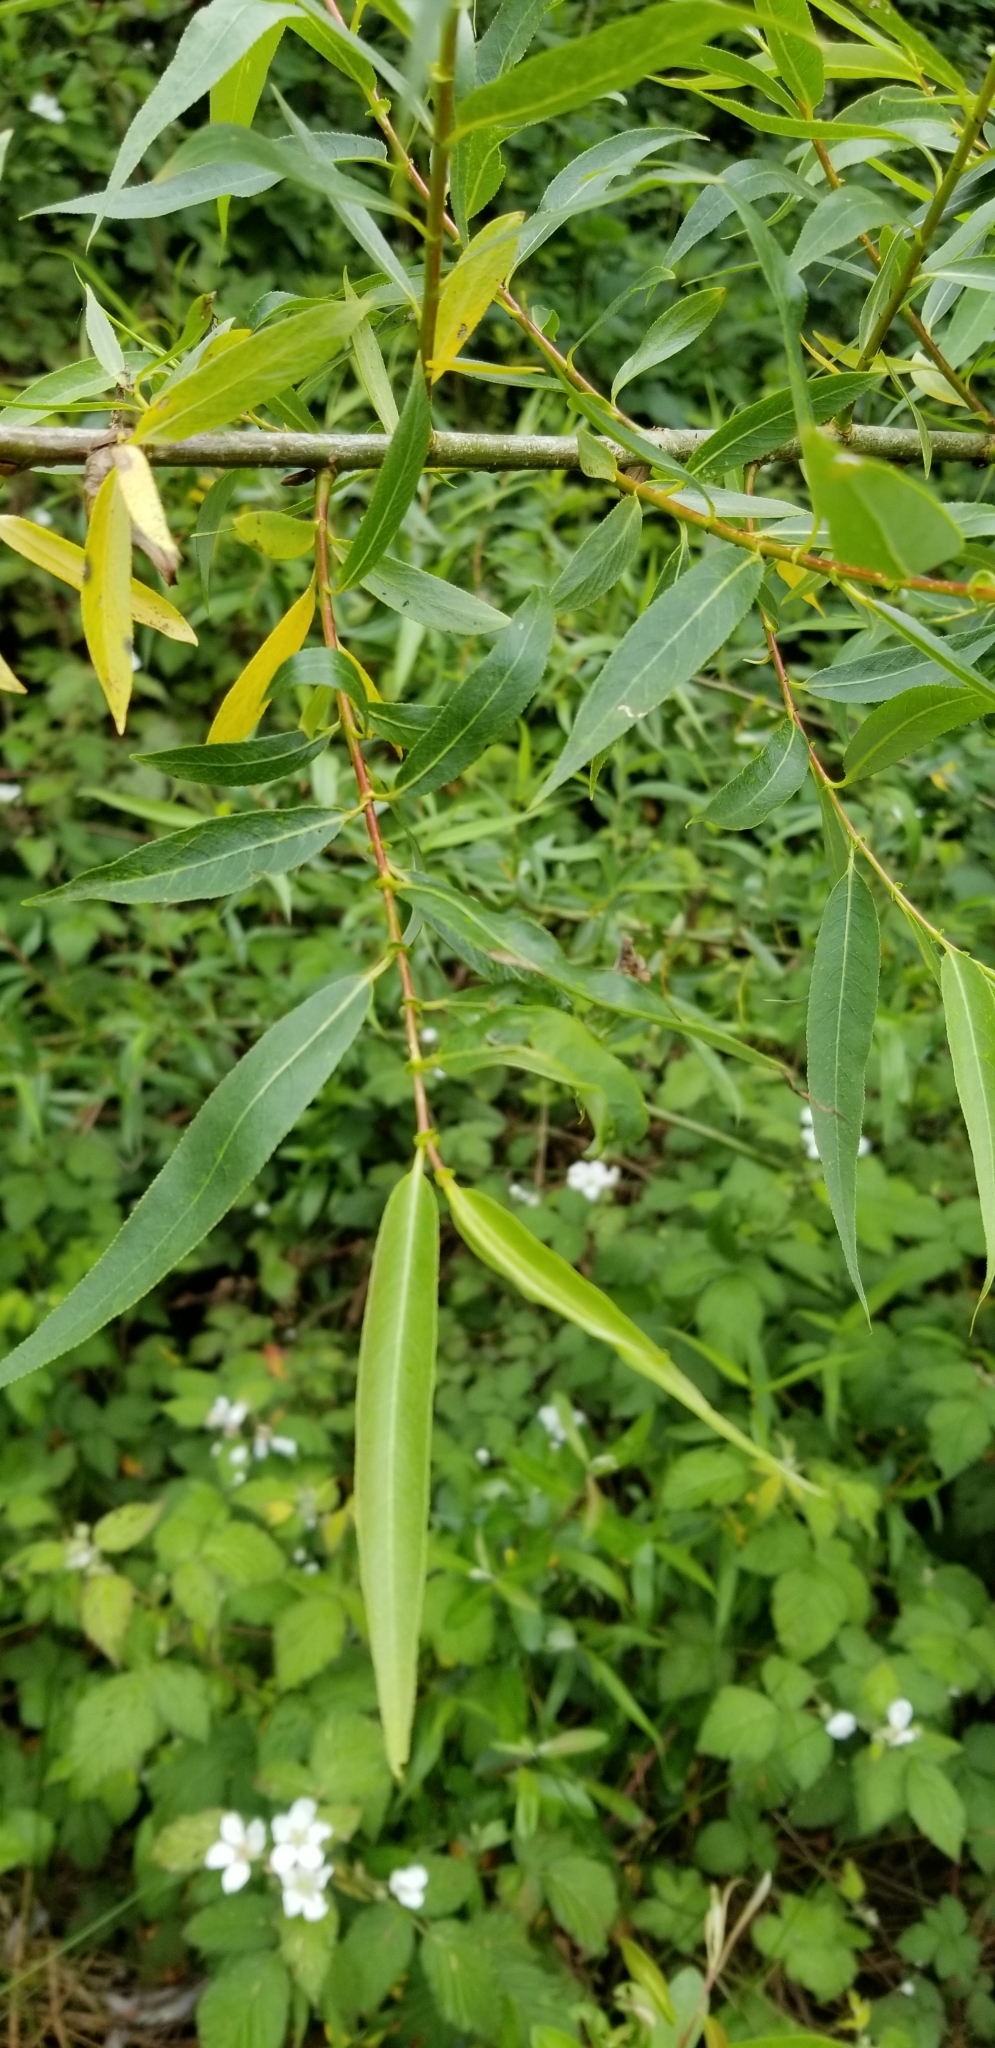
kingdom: Plantae
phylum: Tracheophyta
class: Magnoliopsida
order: Malpighiales
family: Salicaceae
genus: Salix
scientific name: Salix lasiolepis
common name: Arroyo willow
